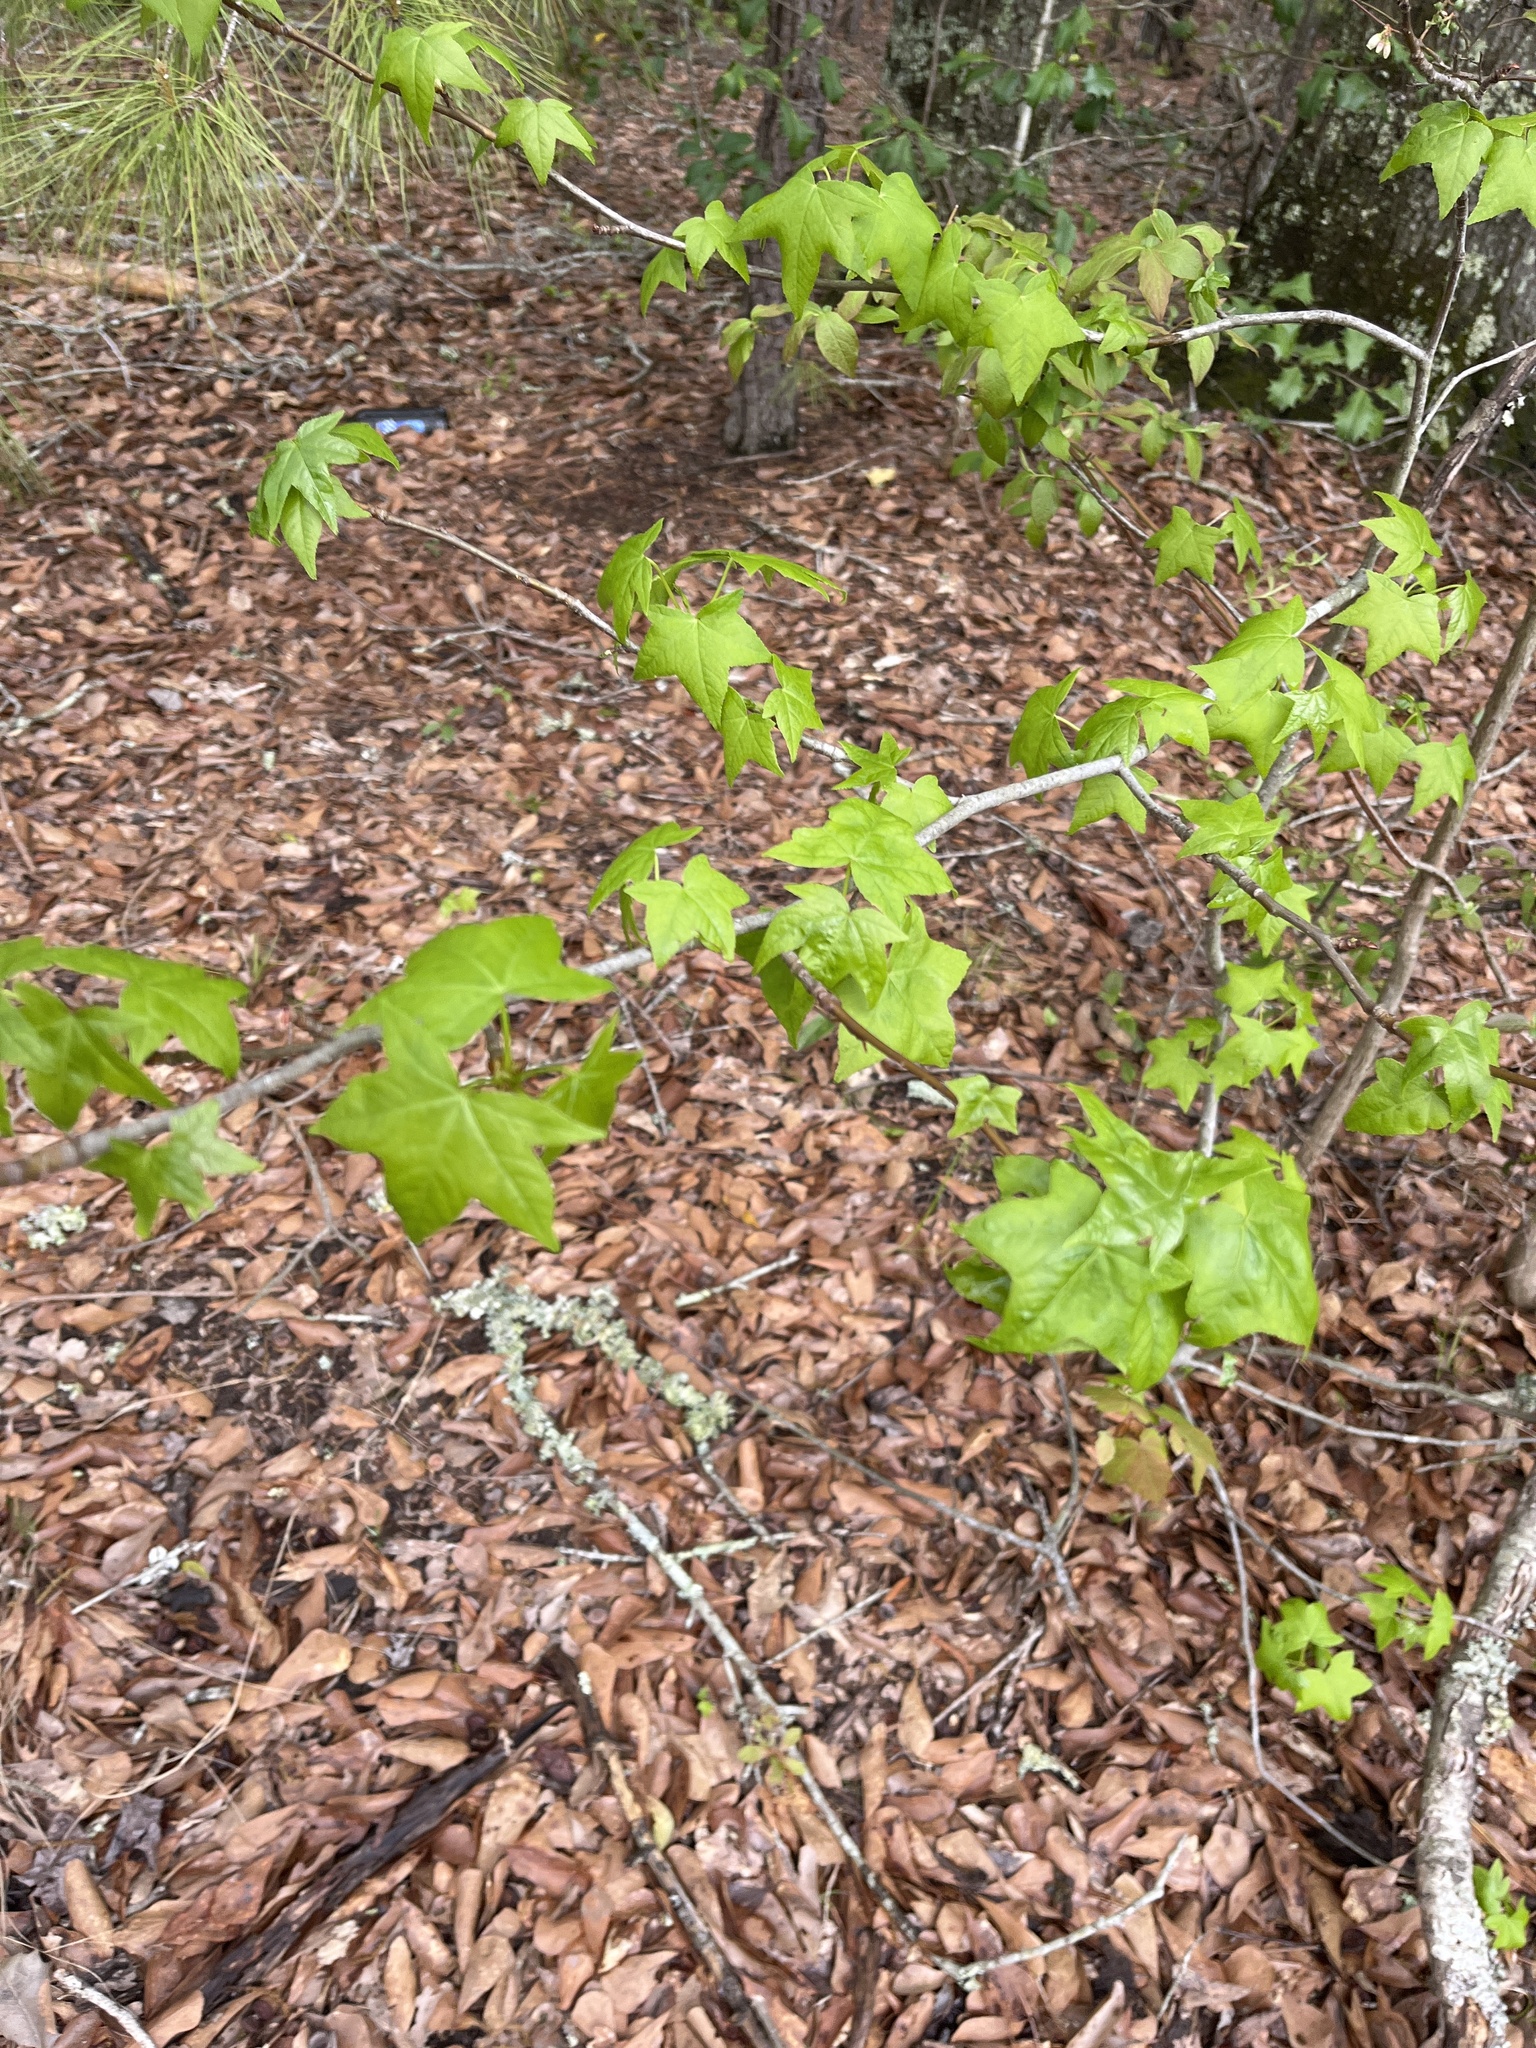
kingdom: Plantae
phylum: Tracheophyta
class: Magnoliopsida
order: Saxifragales
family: Altingiaceae
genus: Liquidambar
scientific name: Liquidambar styraciflua
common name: Sweet gum
